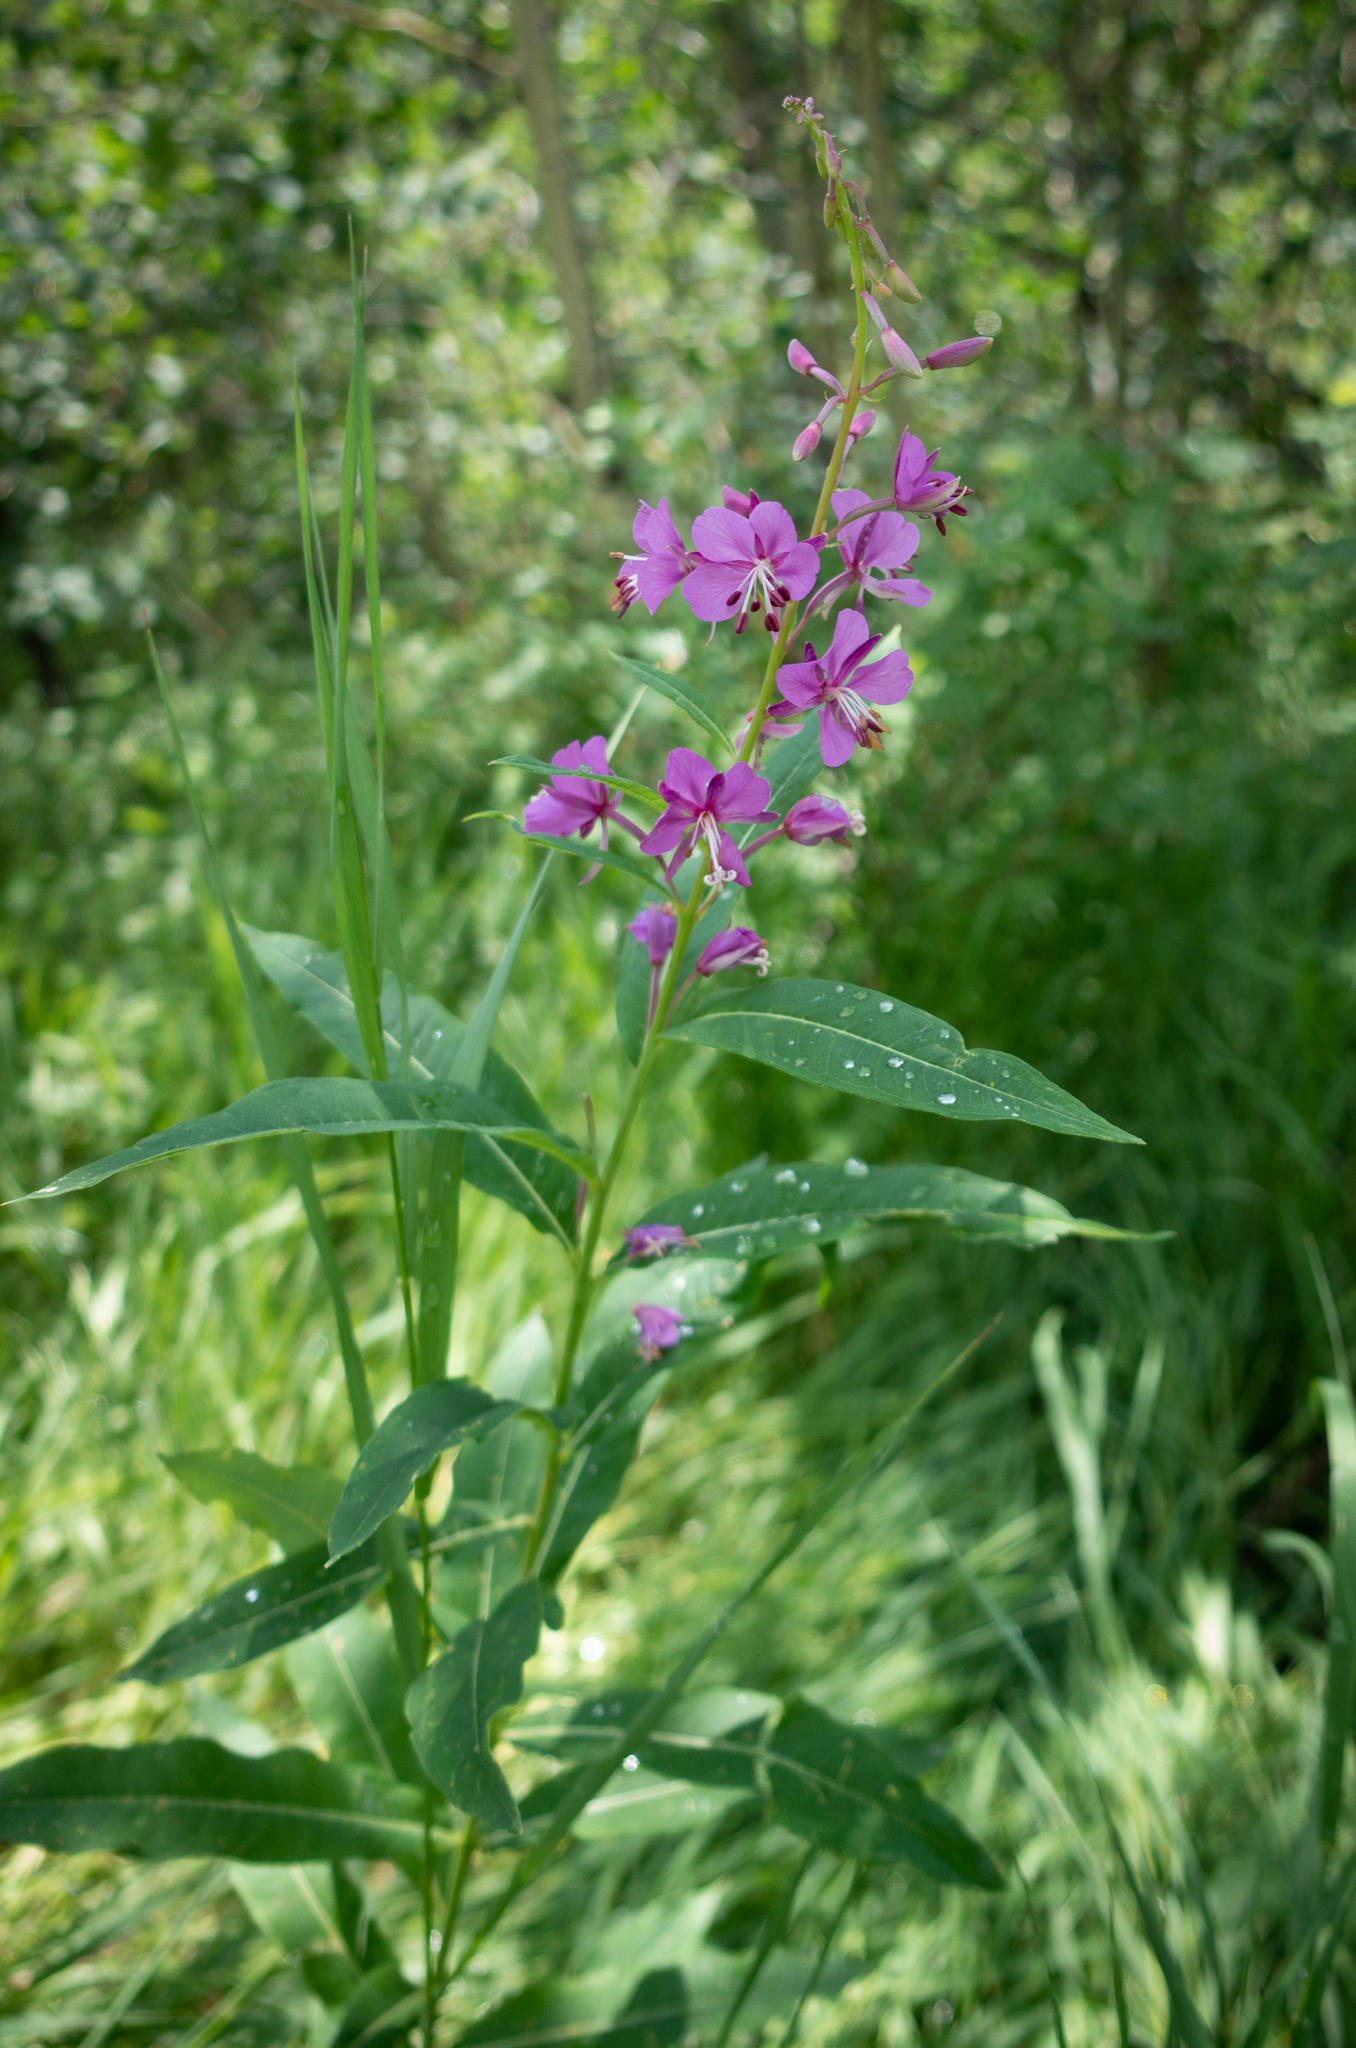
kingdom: Plantae
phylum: Tracheophyta
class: Magnoliopsida
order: Myrtales
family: Onagraceae
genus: Chamaenerion
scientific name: Chamaenerion angustifolium
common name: Fireweed
